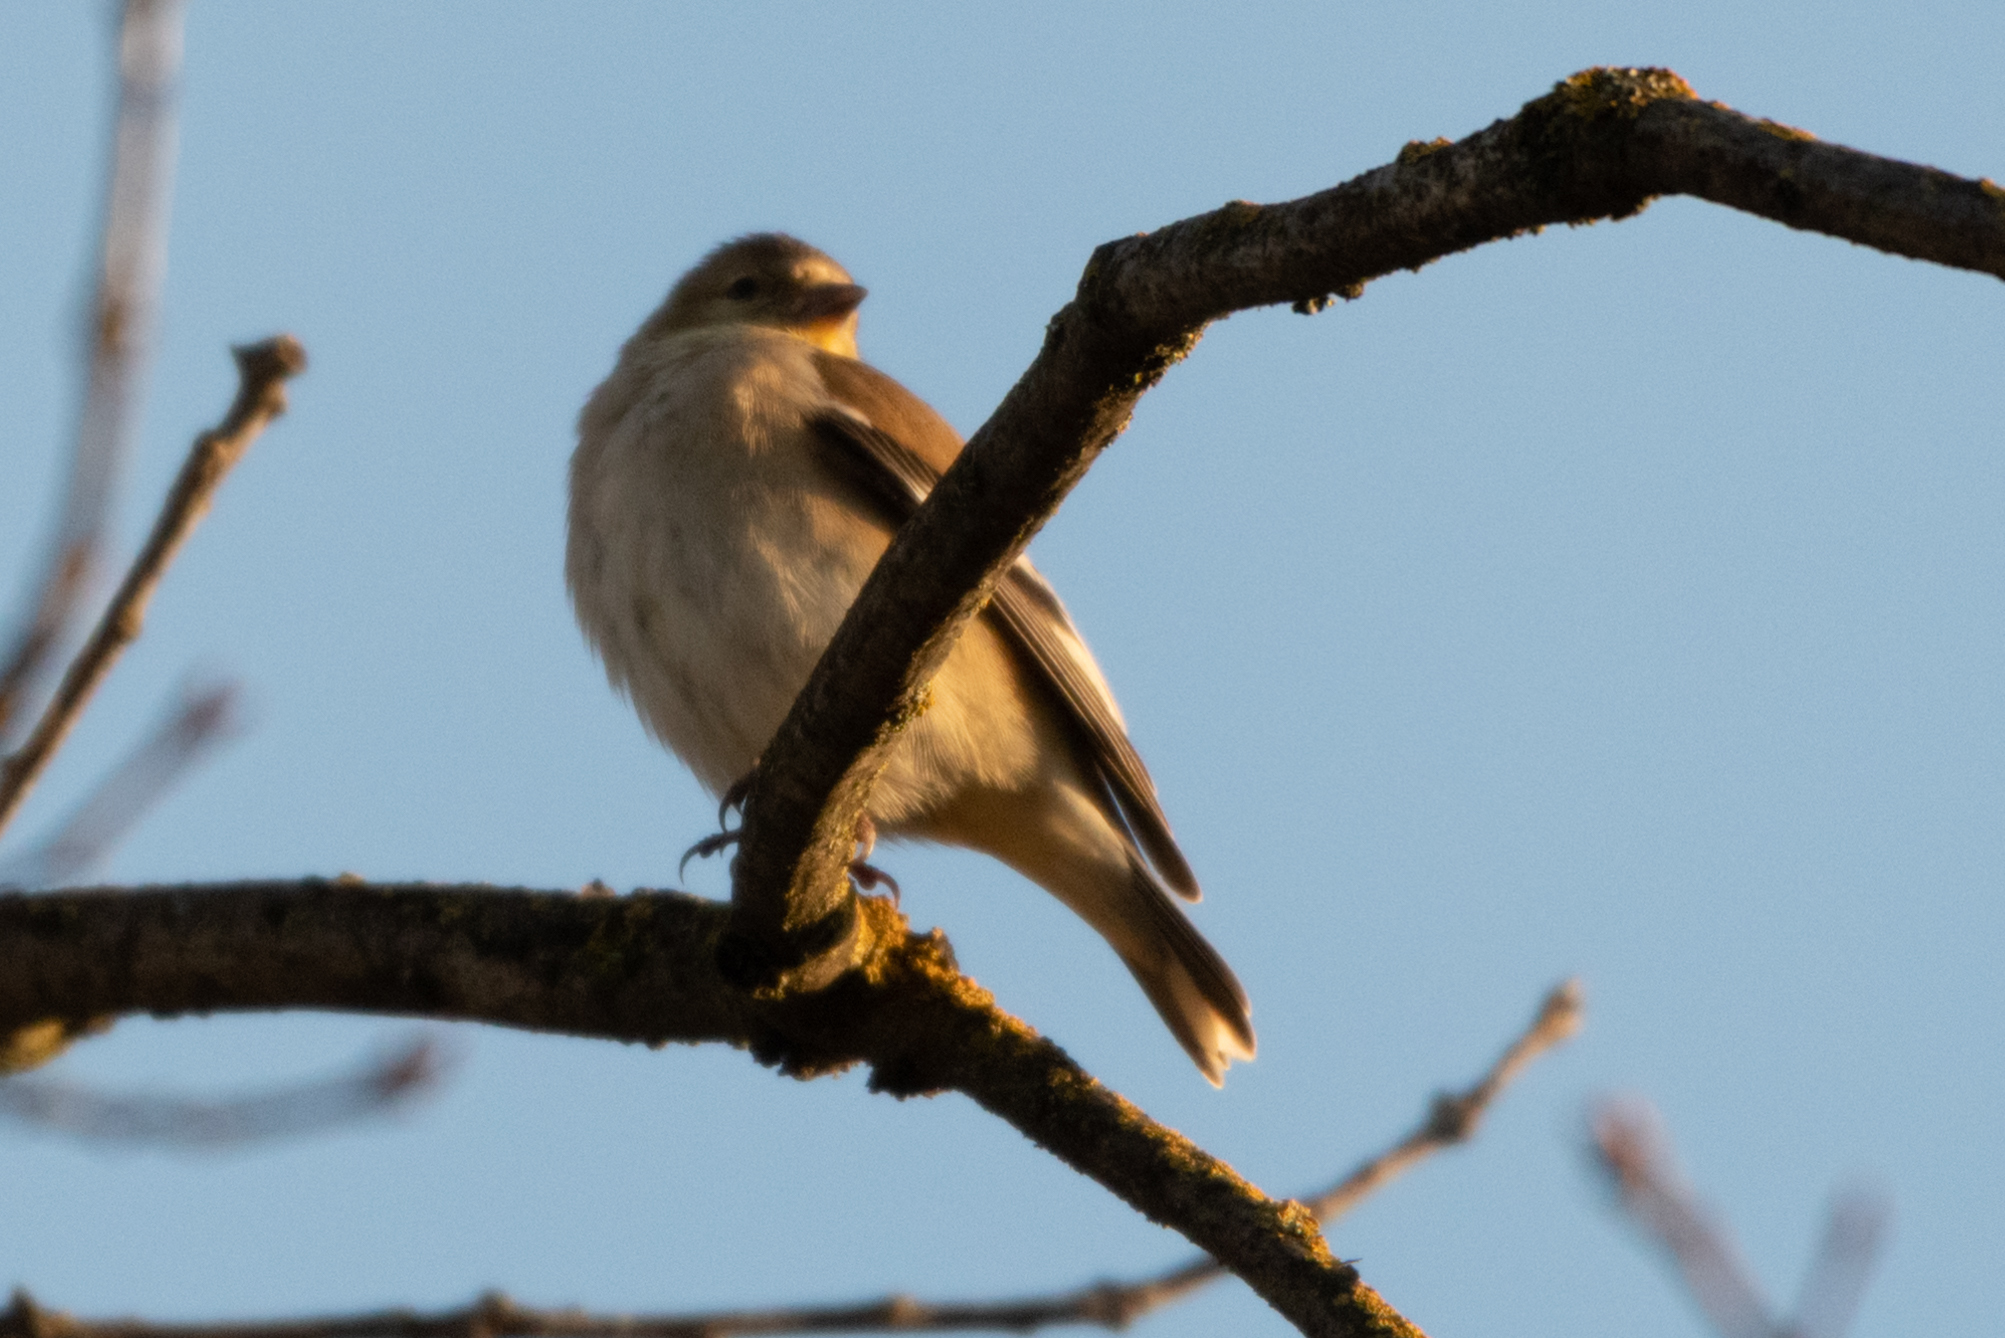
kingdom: Animalia
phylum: Chordata
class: Aves
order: Passeriformes
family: Fringillidae
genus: Spinus
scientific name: Spinus tristis
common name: American goldfinch
